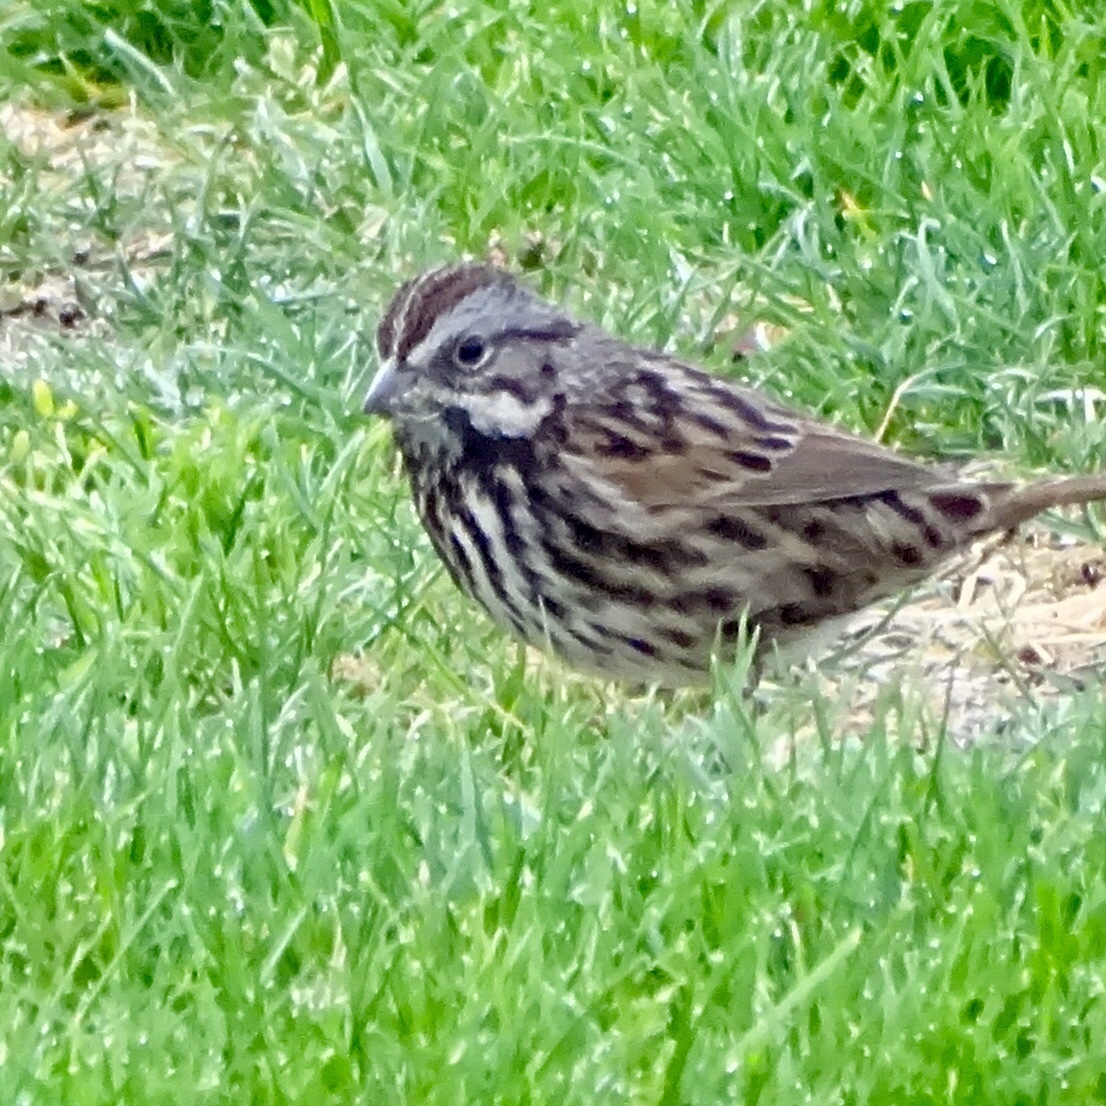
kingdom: Animalia
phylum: Chordata
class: Aves
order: Passeriformes
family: Passerellidae
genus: Melospiza
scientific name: Melospiza melodia
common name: Song sparrow
